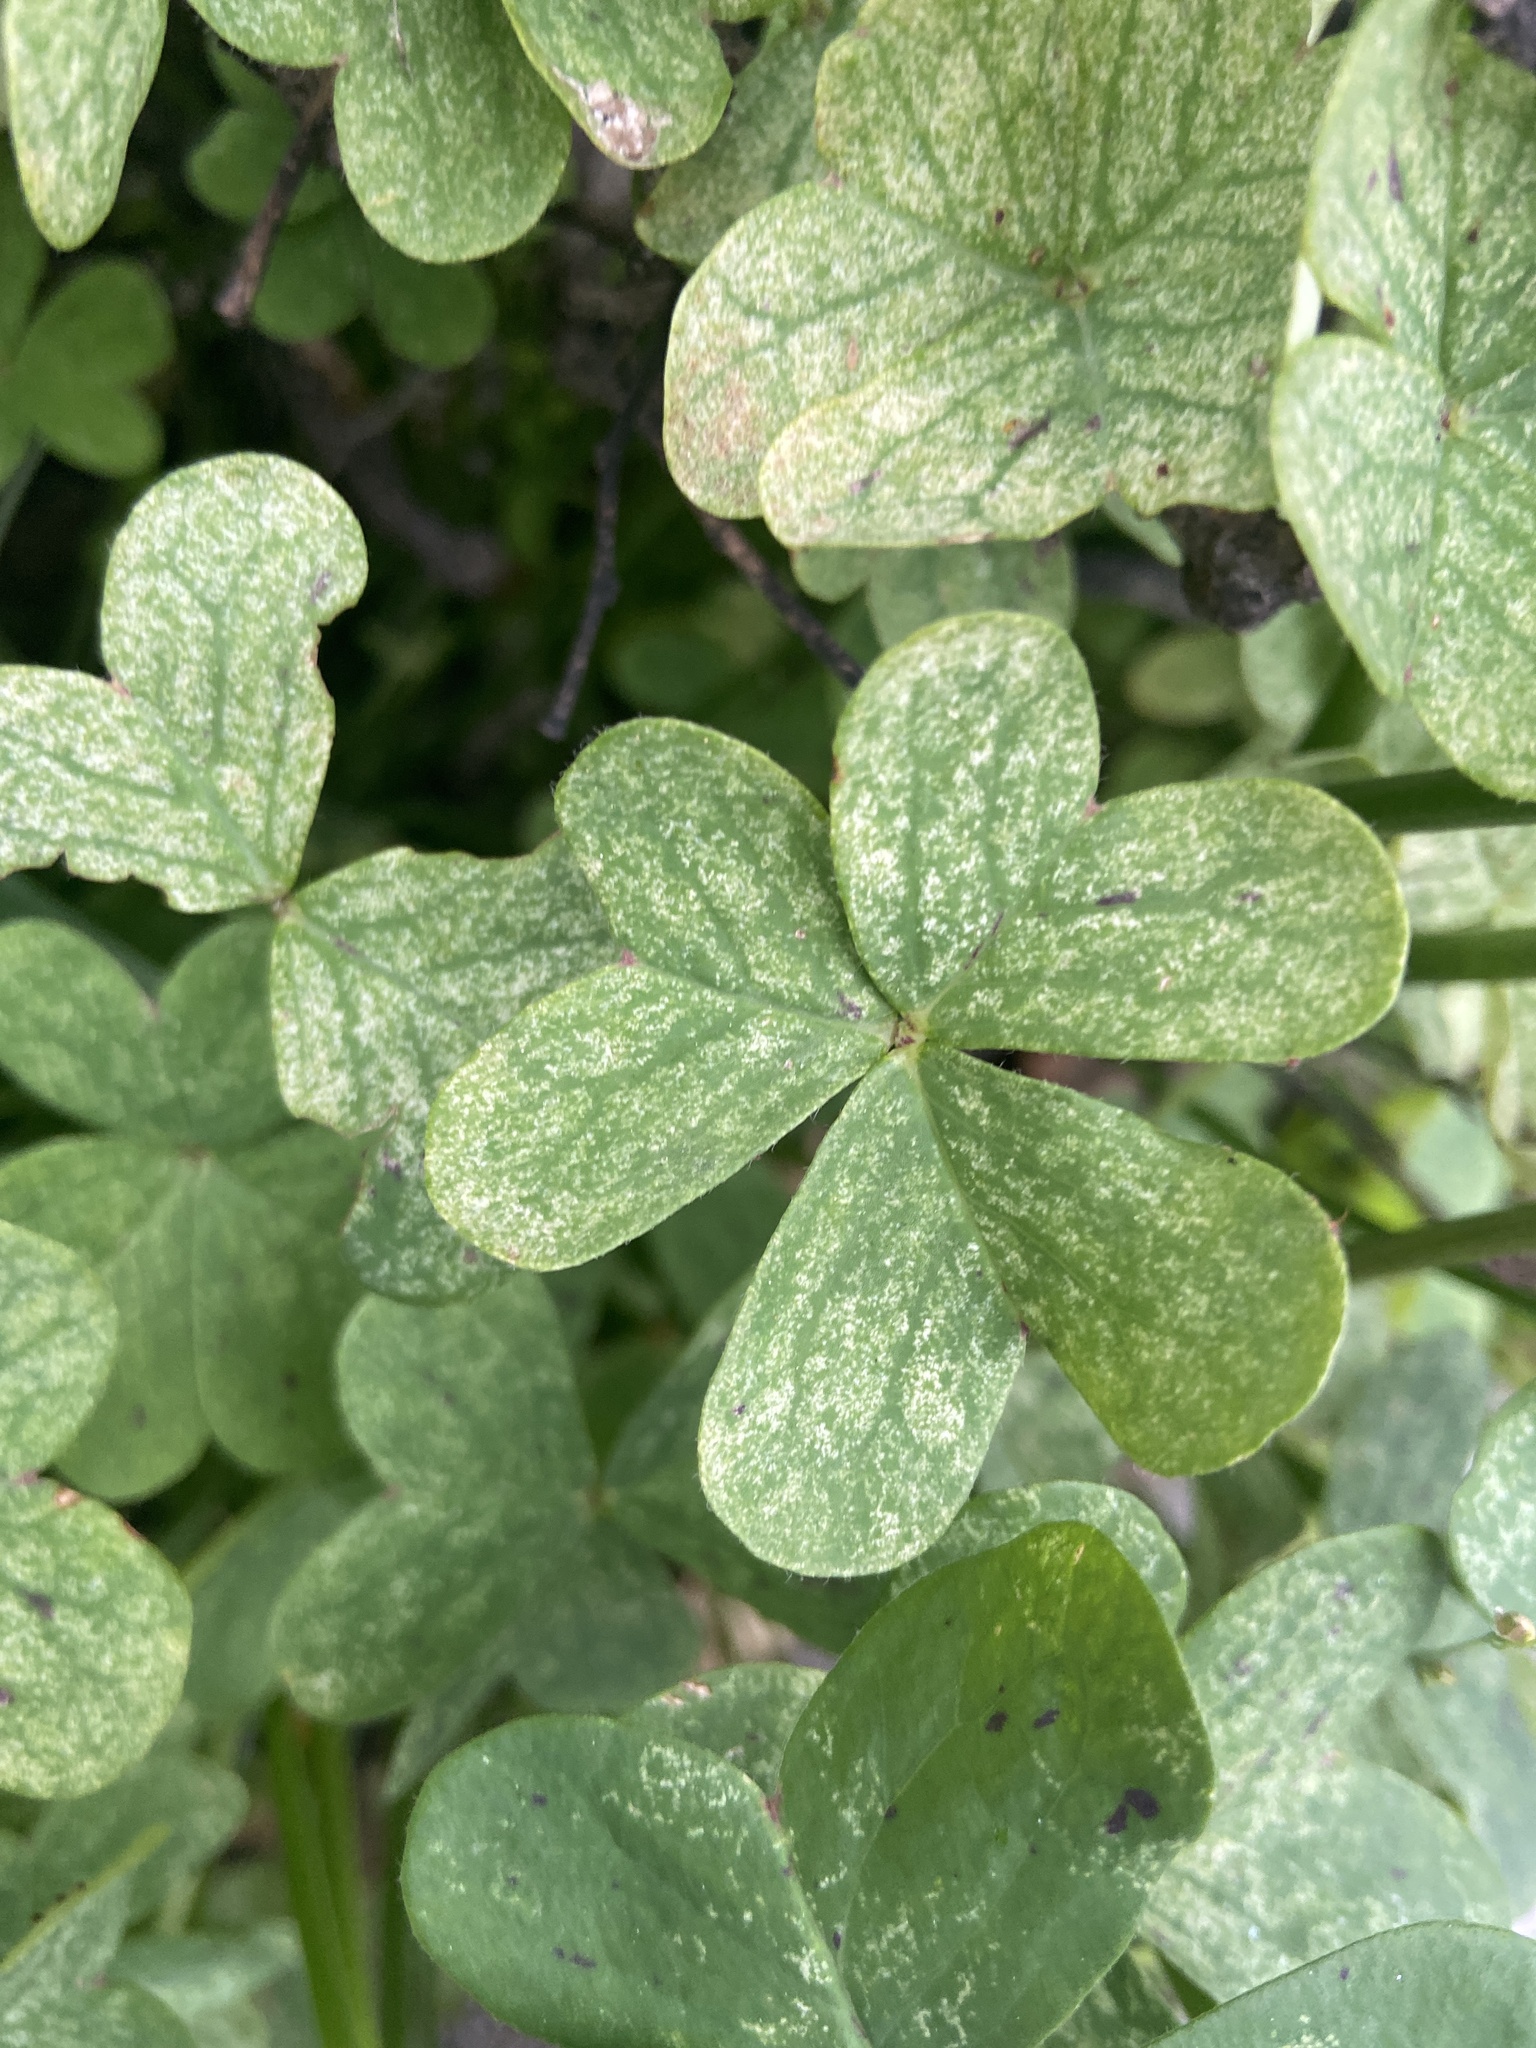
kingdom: Plantae
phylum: Tracheophyta
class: Magnoliopsida
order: Oxalidales
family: Oxalidaceae
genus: Oxalis
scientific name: Oxalis pes-caprae
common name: Bermuda-buttercup
